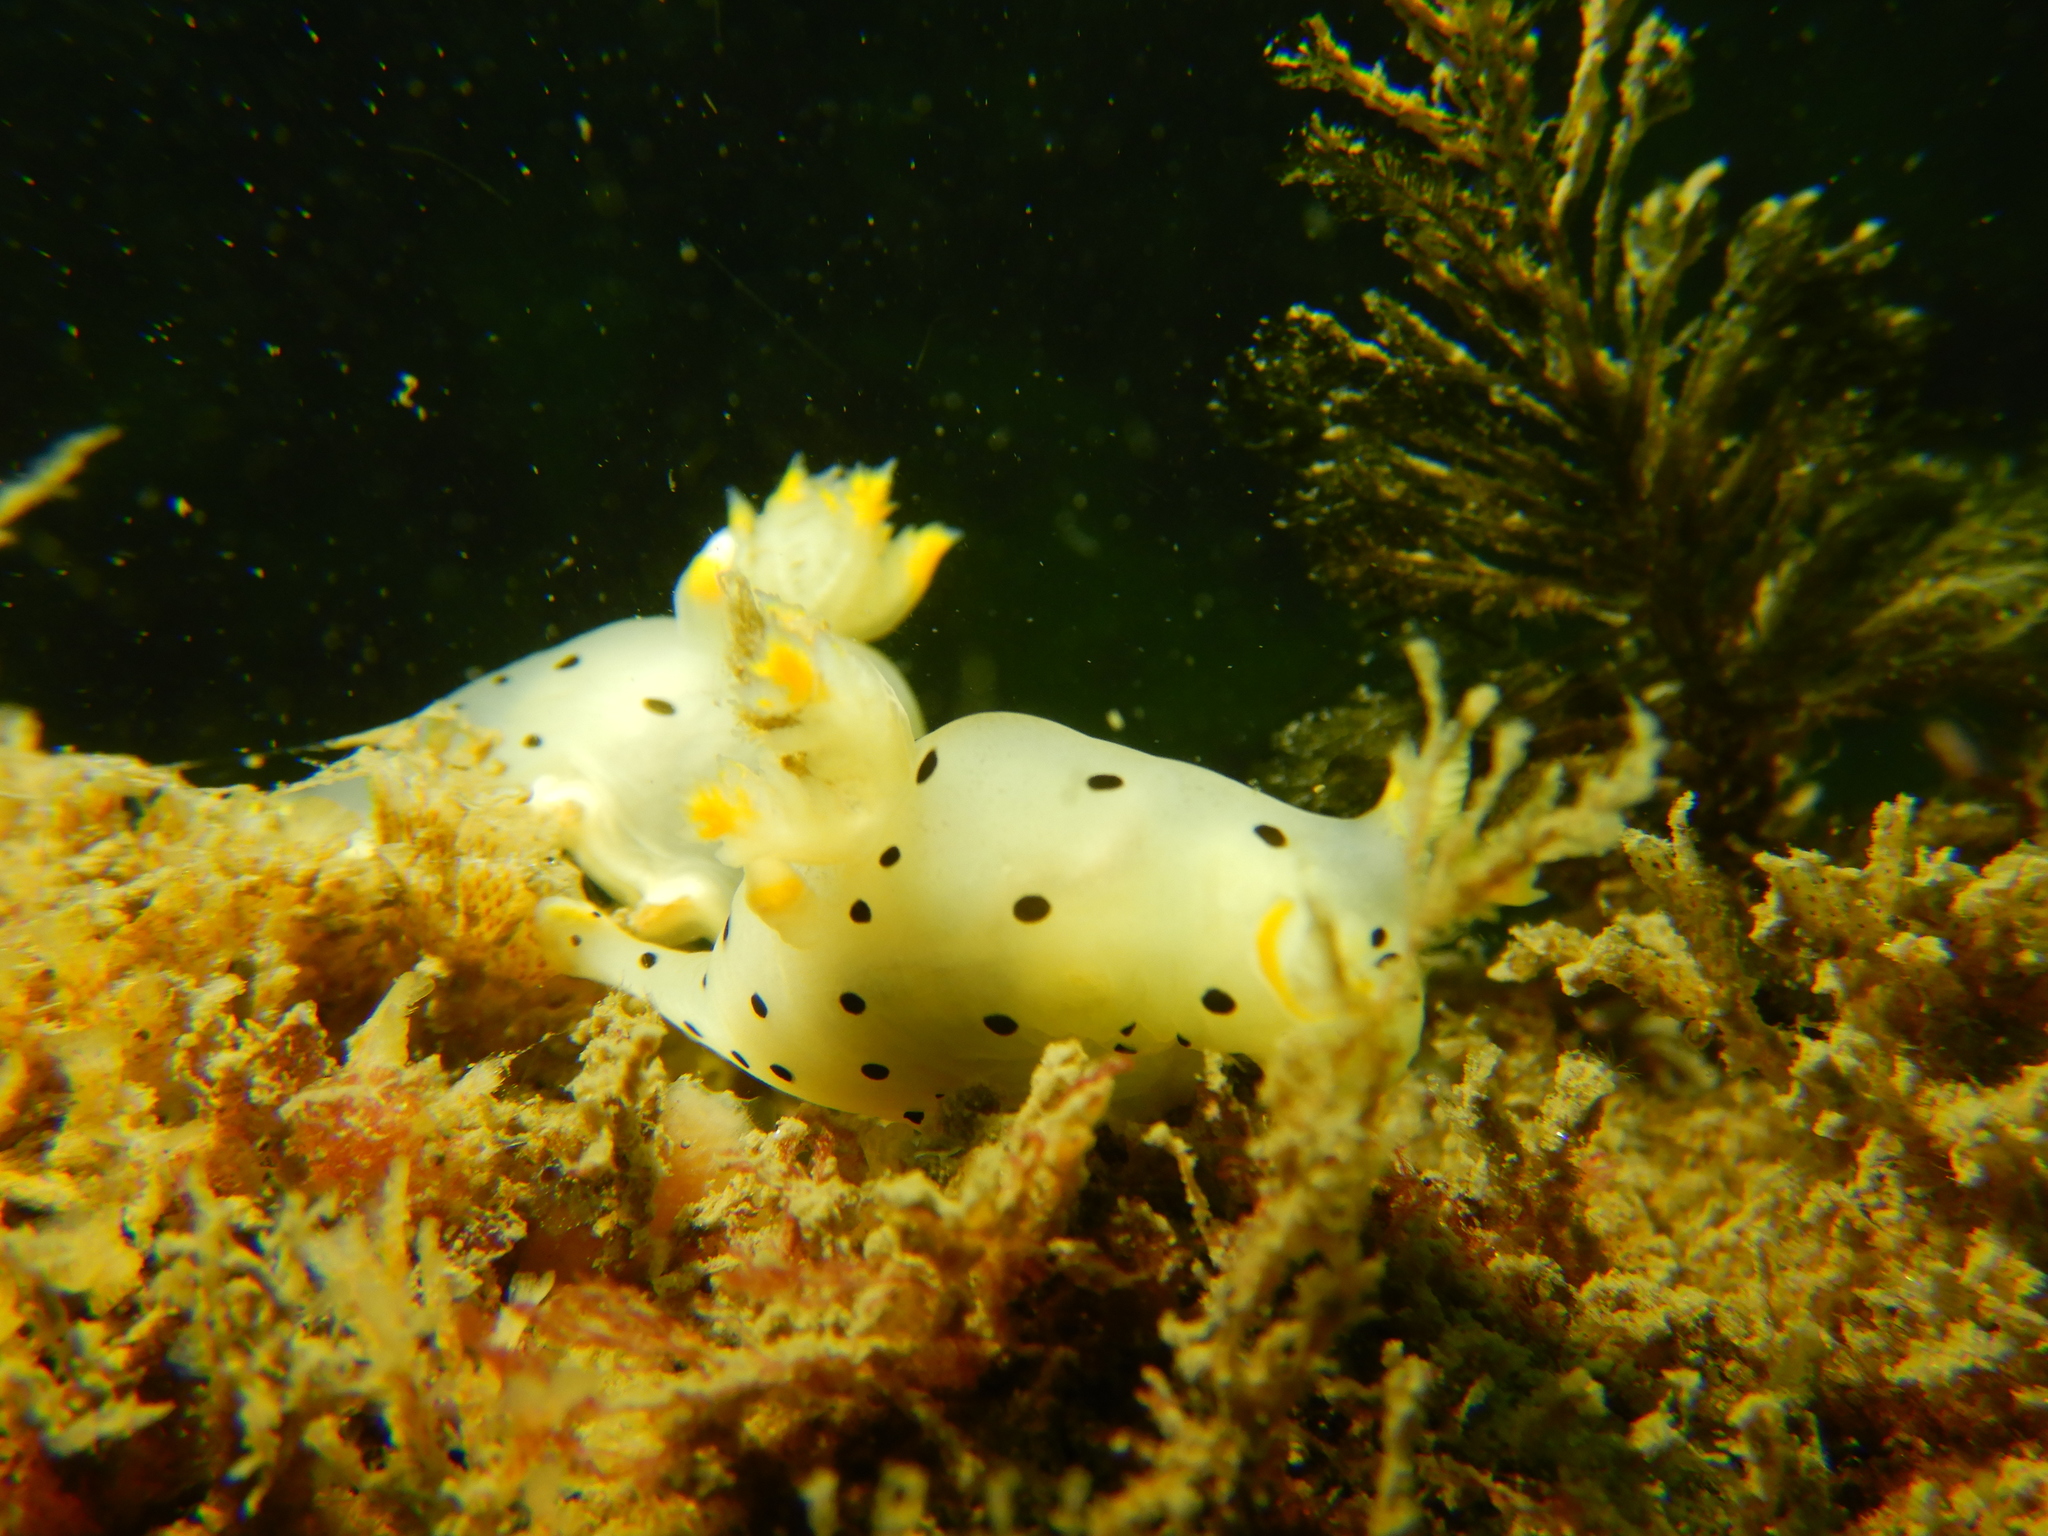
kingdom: Animalia
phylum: Mollusca
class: Gastropoda
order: Nudibranchia
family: Polyceridae
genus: Thecacera
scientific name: Thecacera darwini
